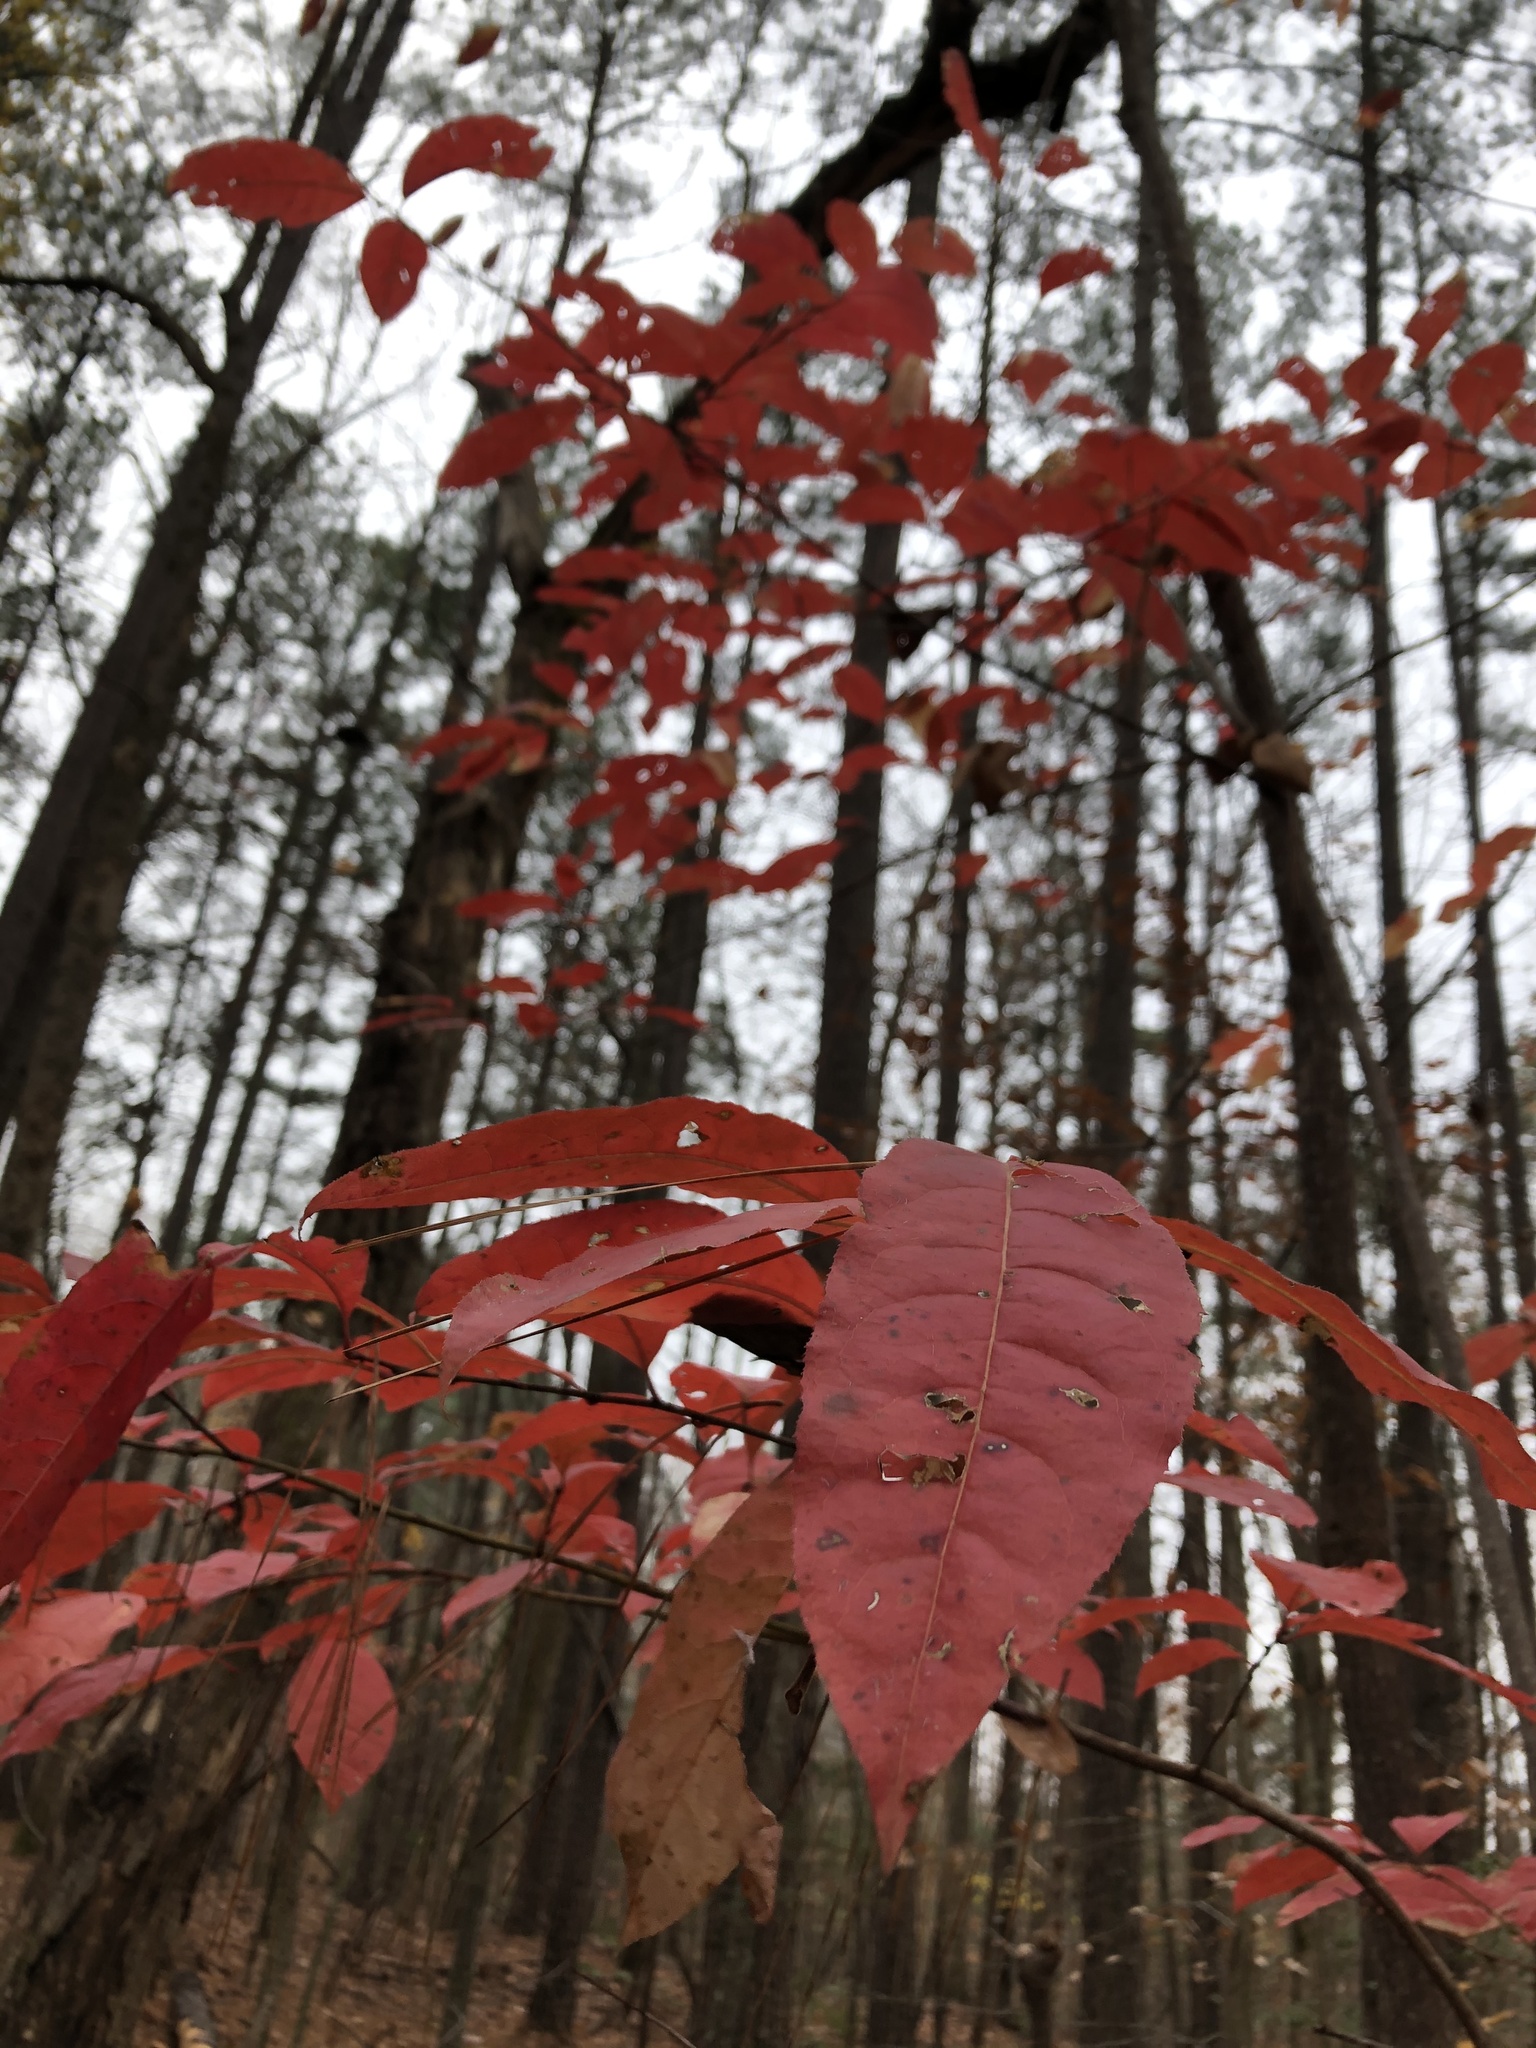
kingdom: Plantae
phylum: Tracheophyta
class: Magnoliopsida
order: Ericales
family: Ericaceae
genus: Oxydendrum
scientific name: Oxydendrum arboreum
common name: Sourwood
